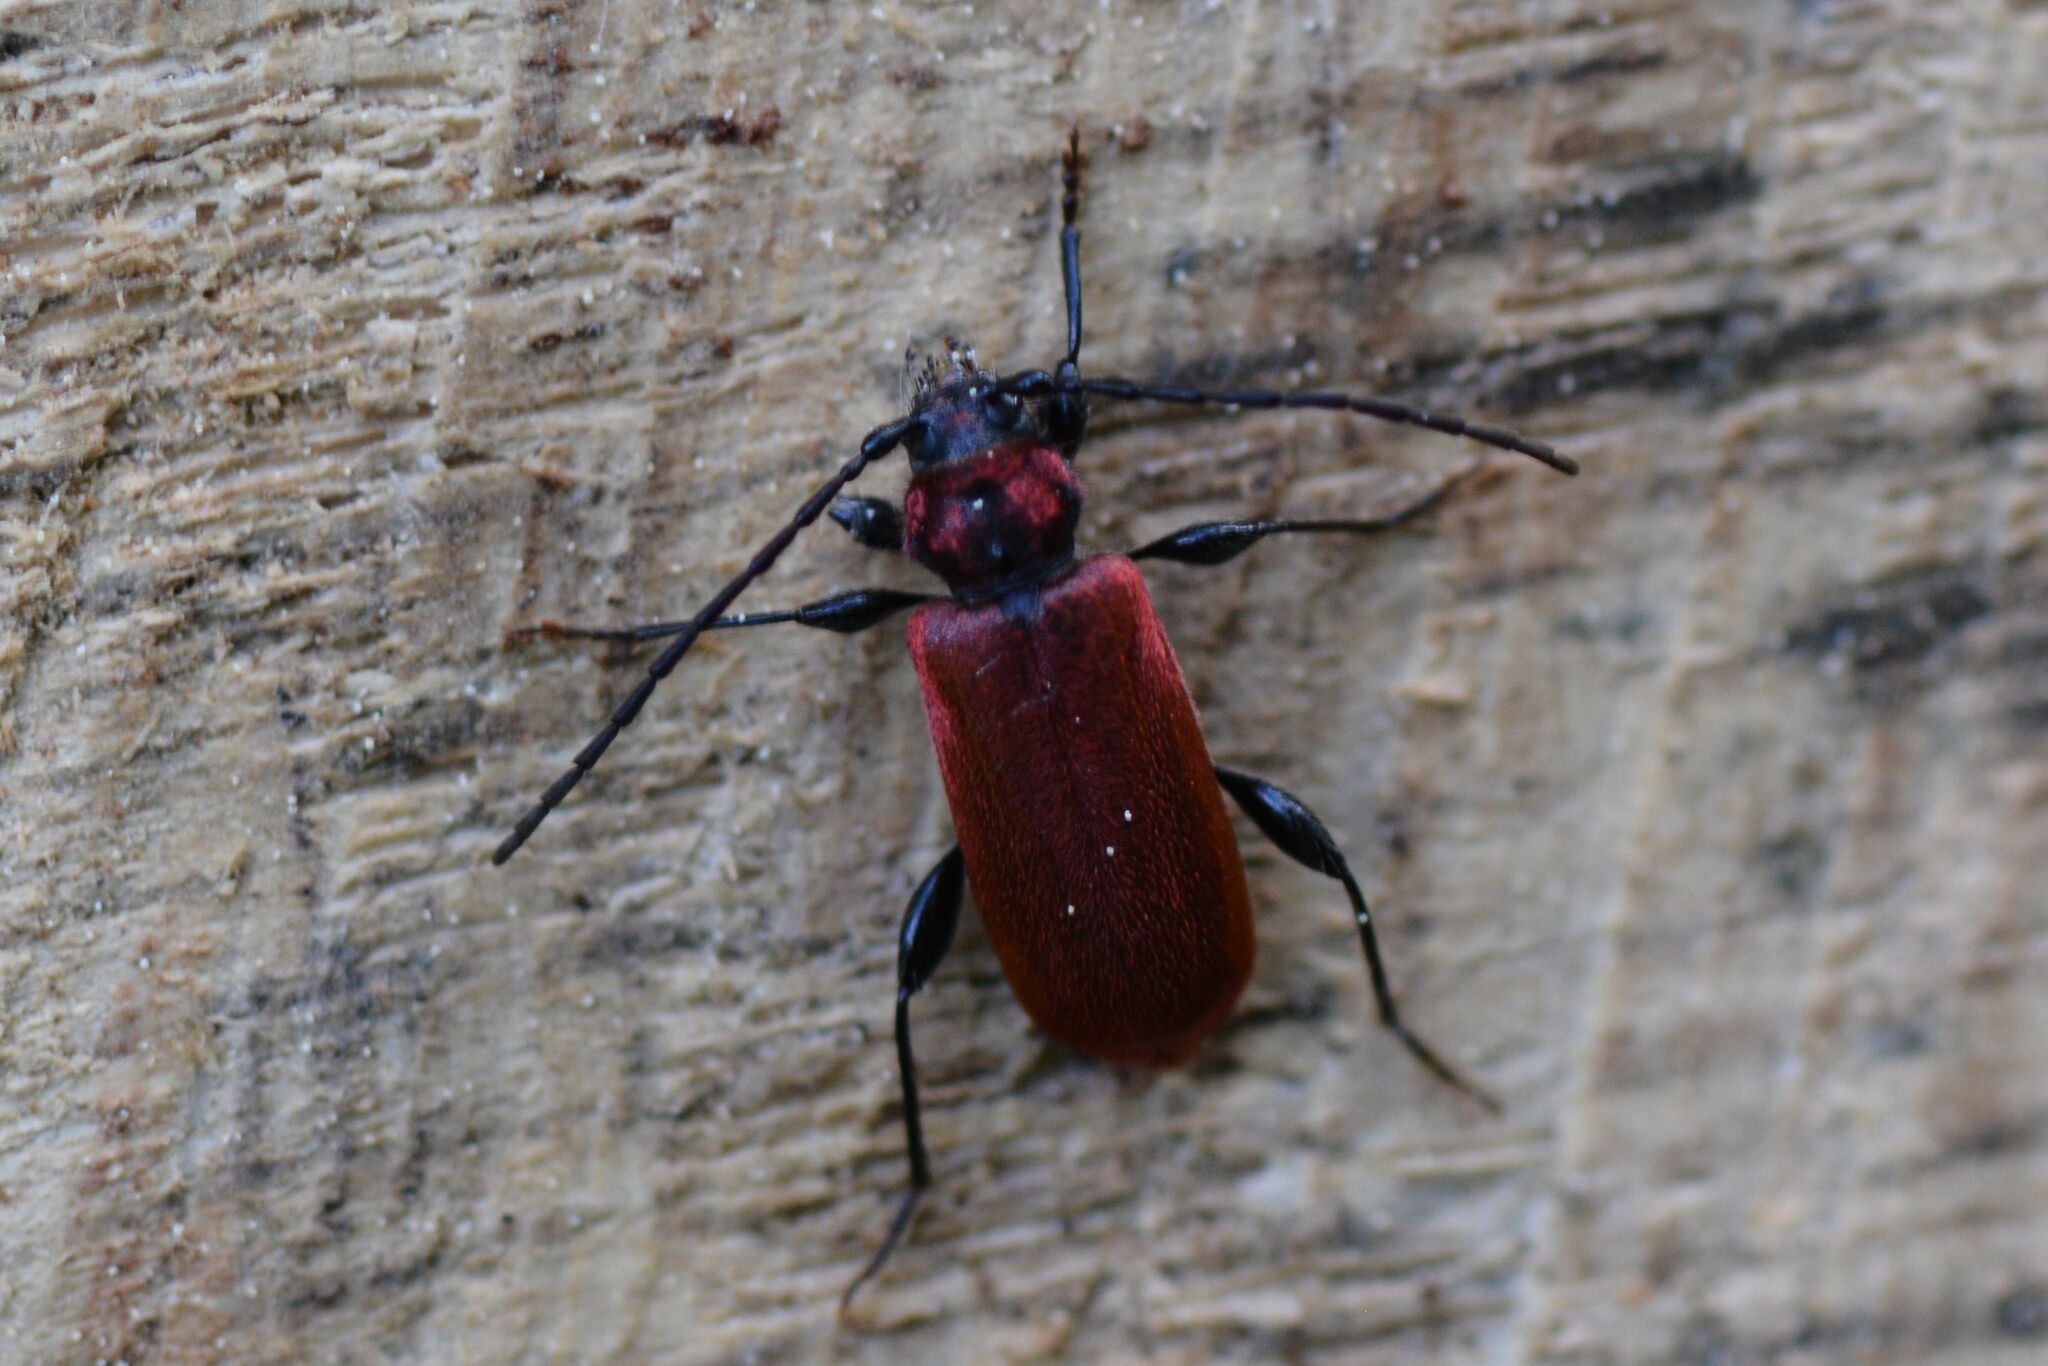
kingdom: Animalia
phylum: Arthropoda
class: Insecta
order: Coleoptera
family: Cerambycidae
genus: Pyrrhidium
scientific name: Pyrrhidium sanguineum
